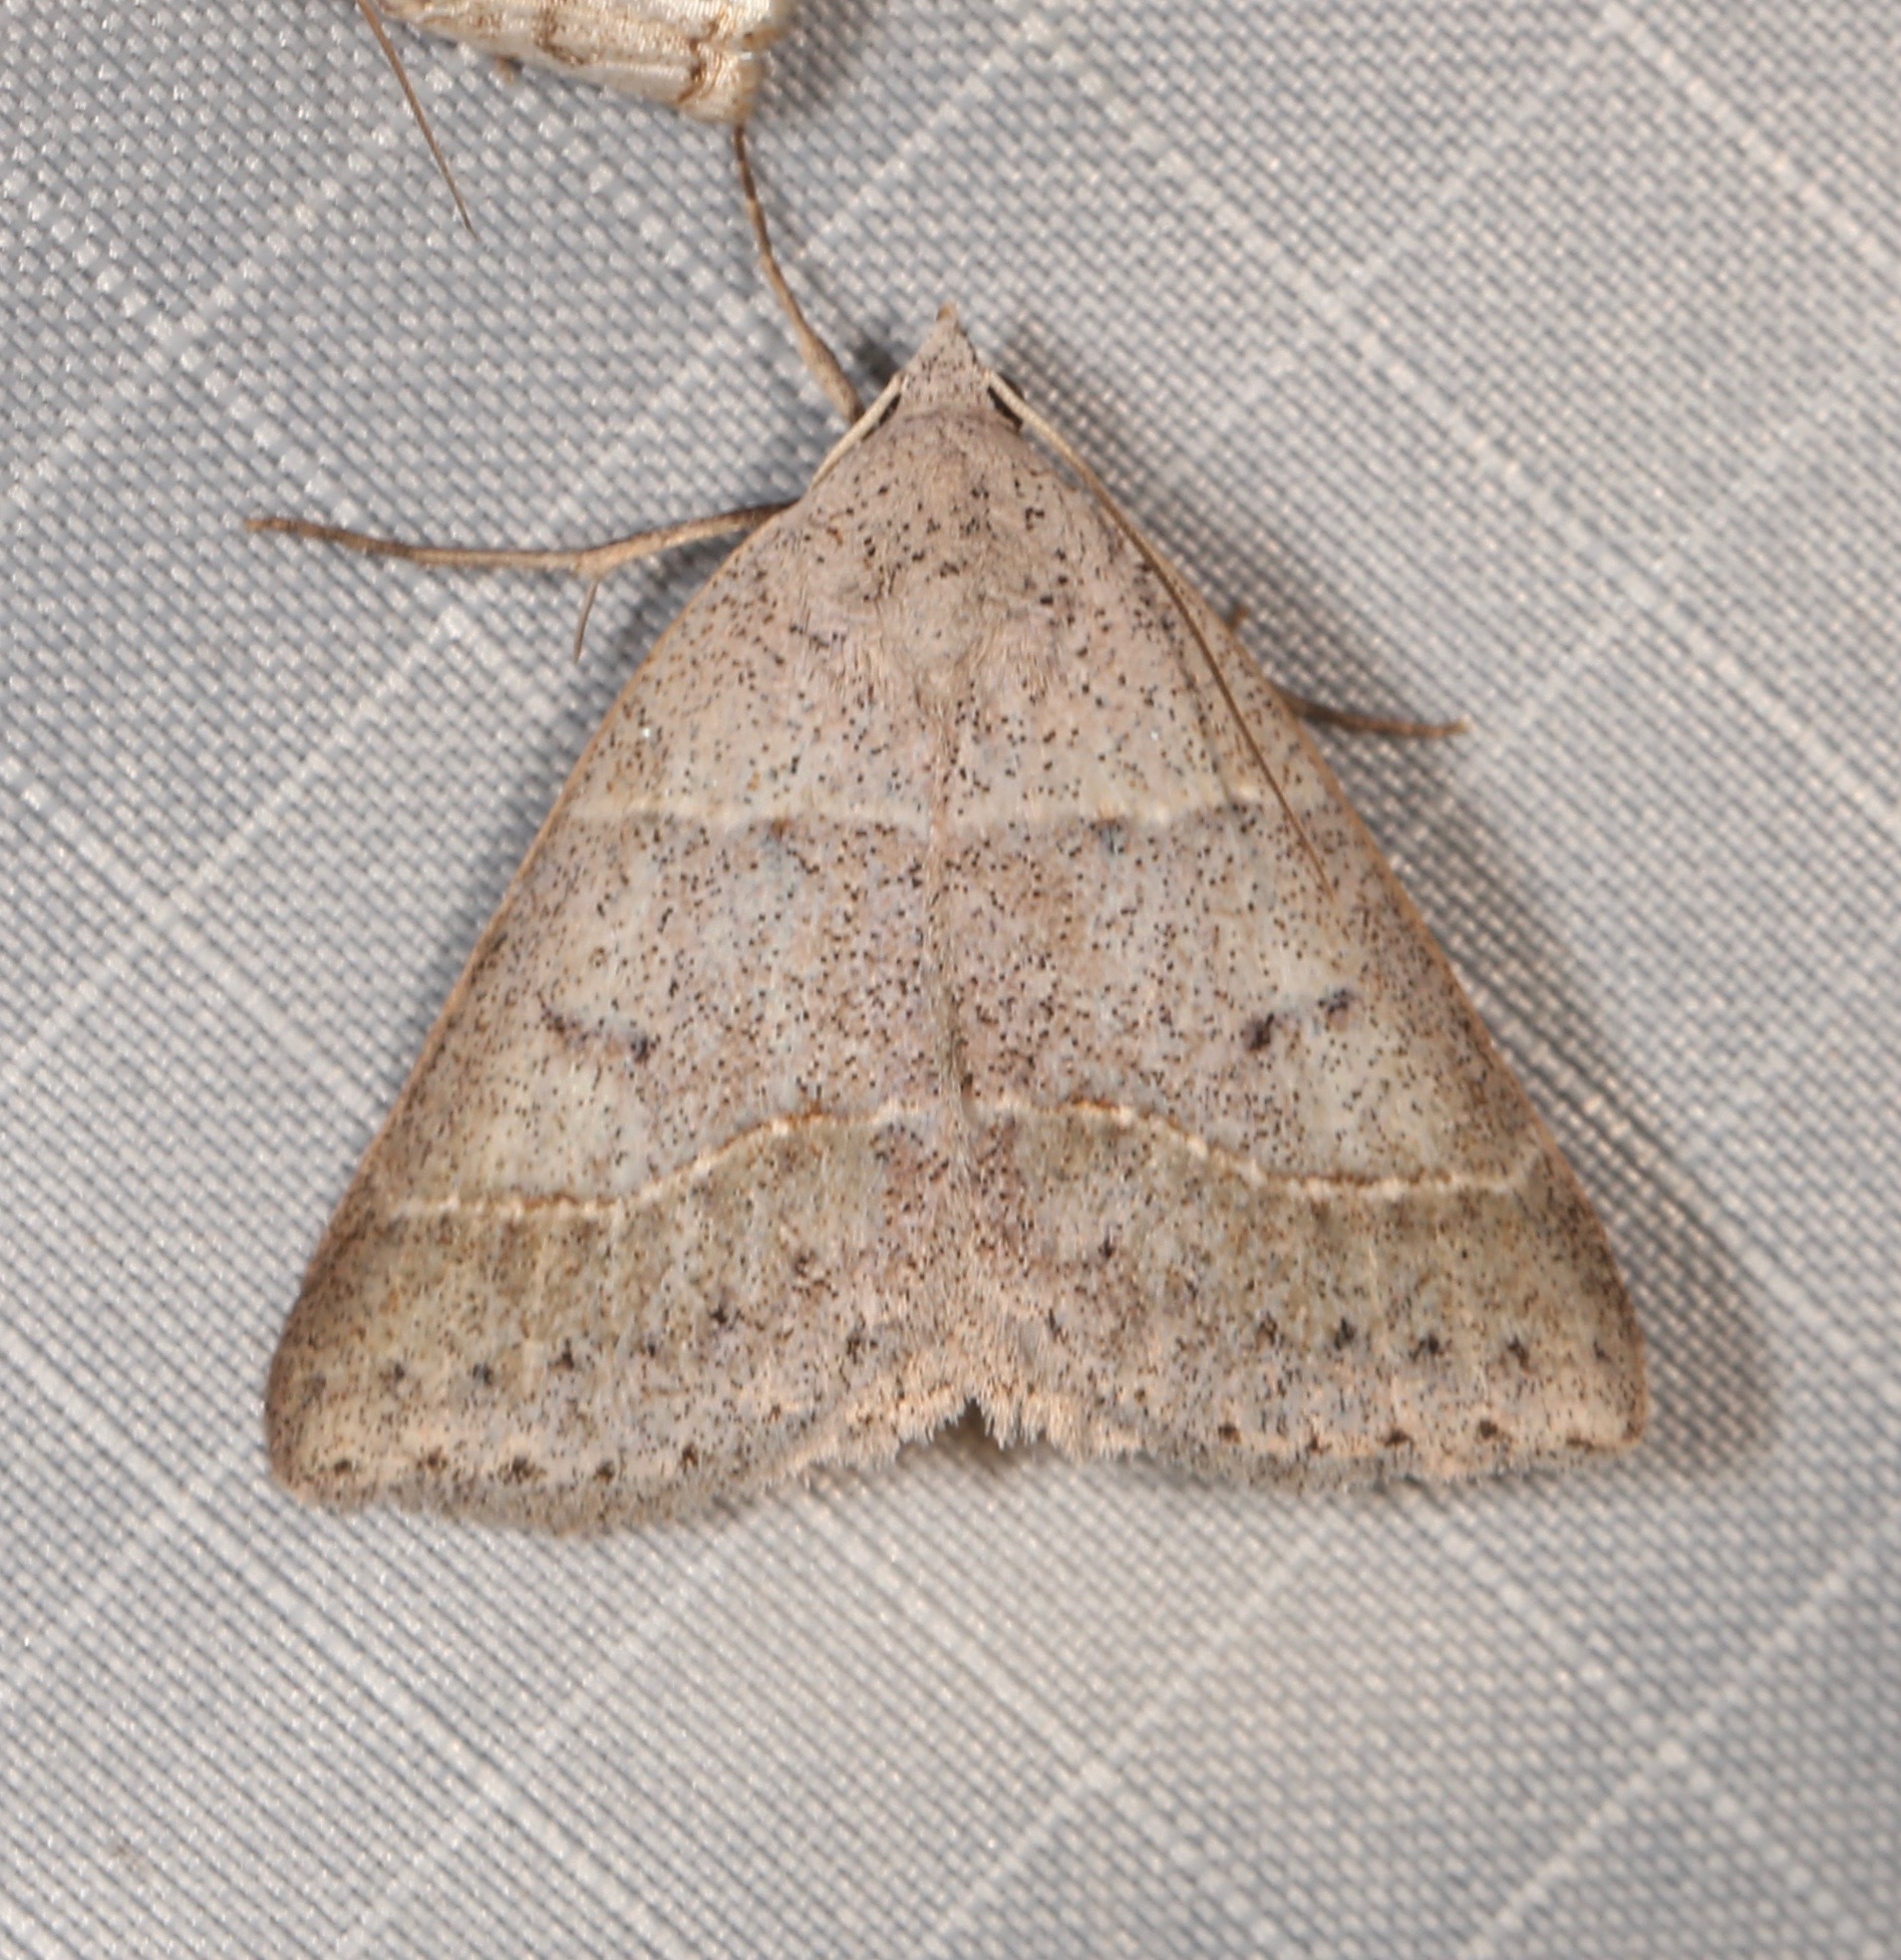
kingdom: Animalia
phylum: Arthropoda
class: Insecta
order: Lepidoptera
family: Erebidae
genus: Ptichodis
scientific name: Ptichodis pacalis
